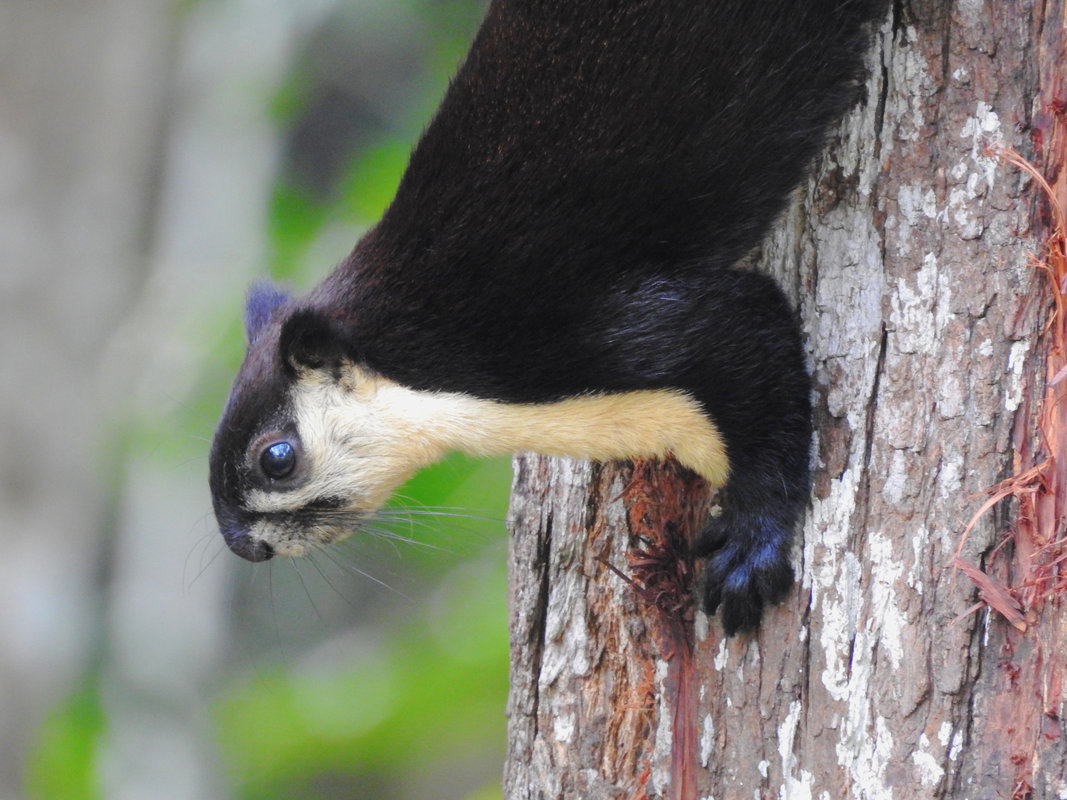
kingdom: Animalia
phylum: Chordata
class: Mammalia
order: Rodentia
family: Sciuridae
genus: Ratufa
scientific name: Ratufa bicolor
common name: Black giant squirrel
